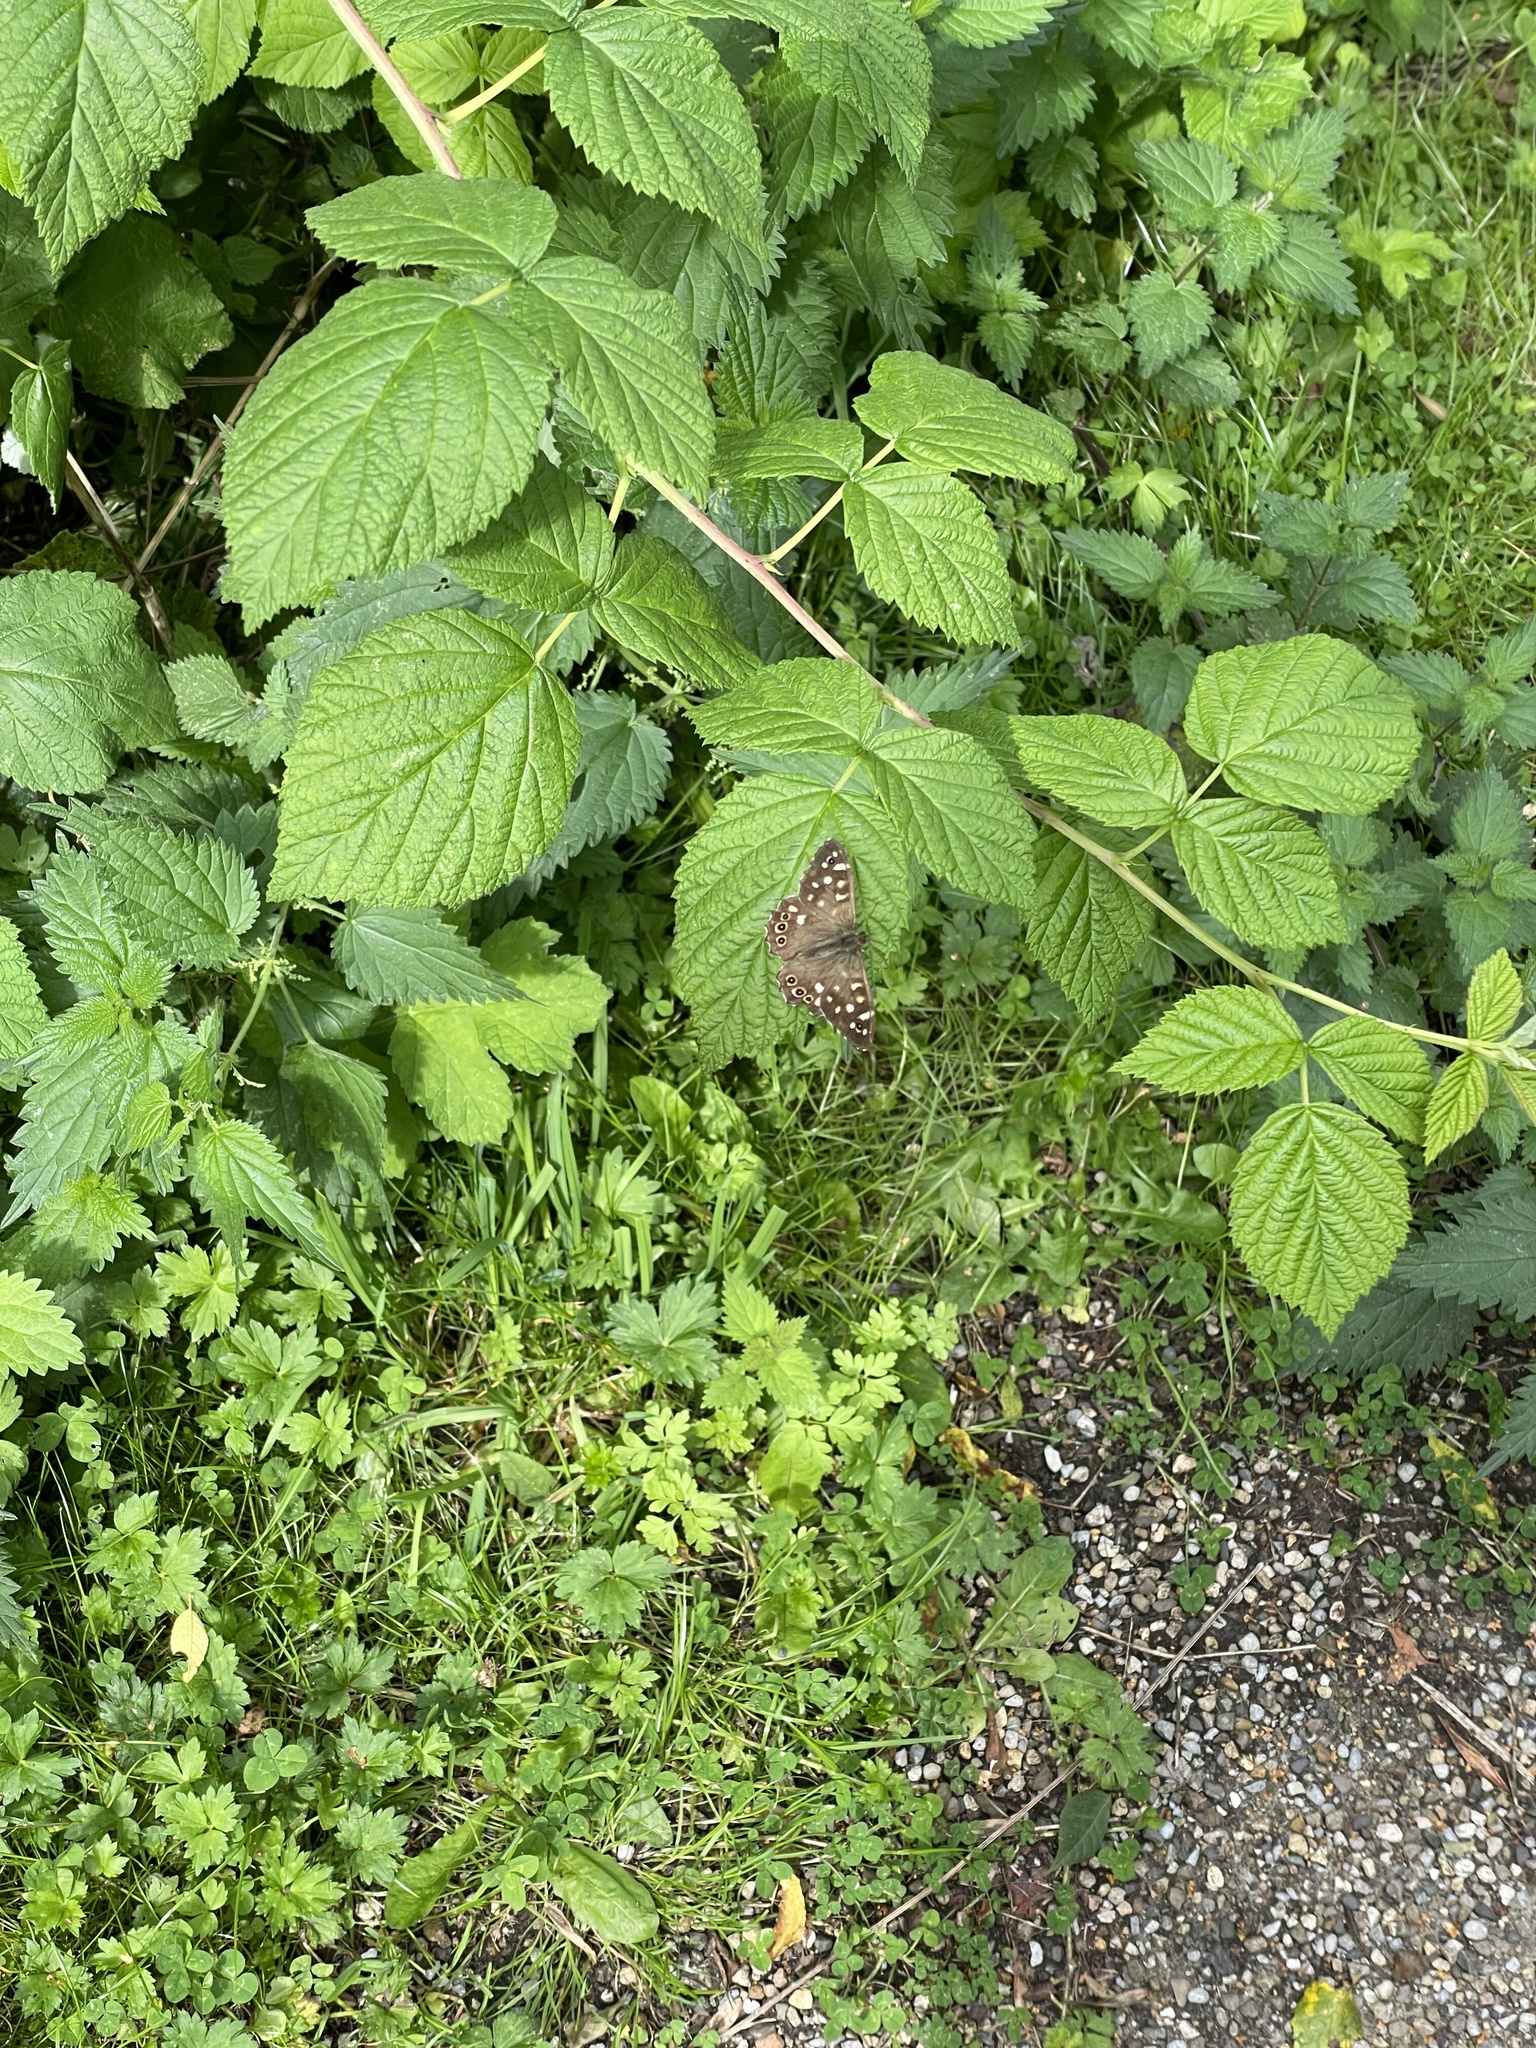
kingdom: Animalia
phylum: Arthropoda
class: Insecta
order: Lepidoptera
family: Nymphalidae
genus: Pararge
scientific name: Pararge aegeria
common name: Speckled wood
